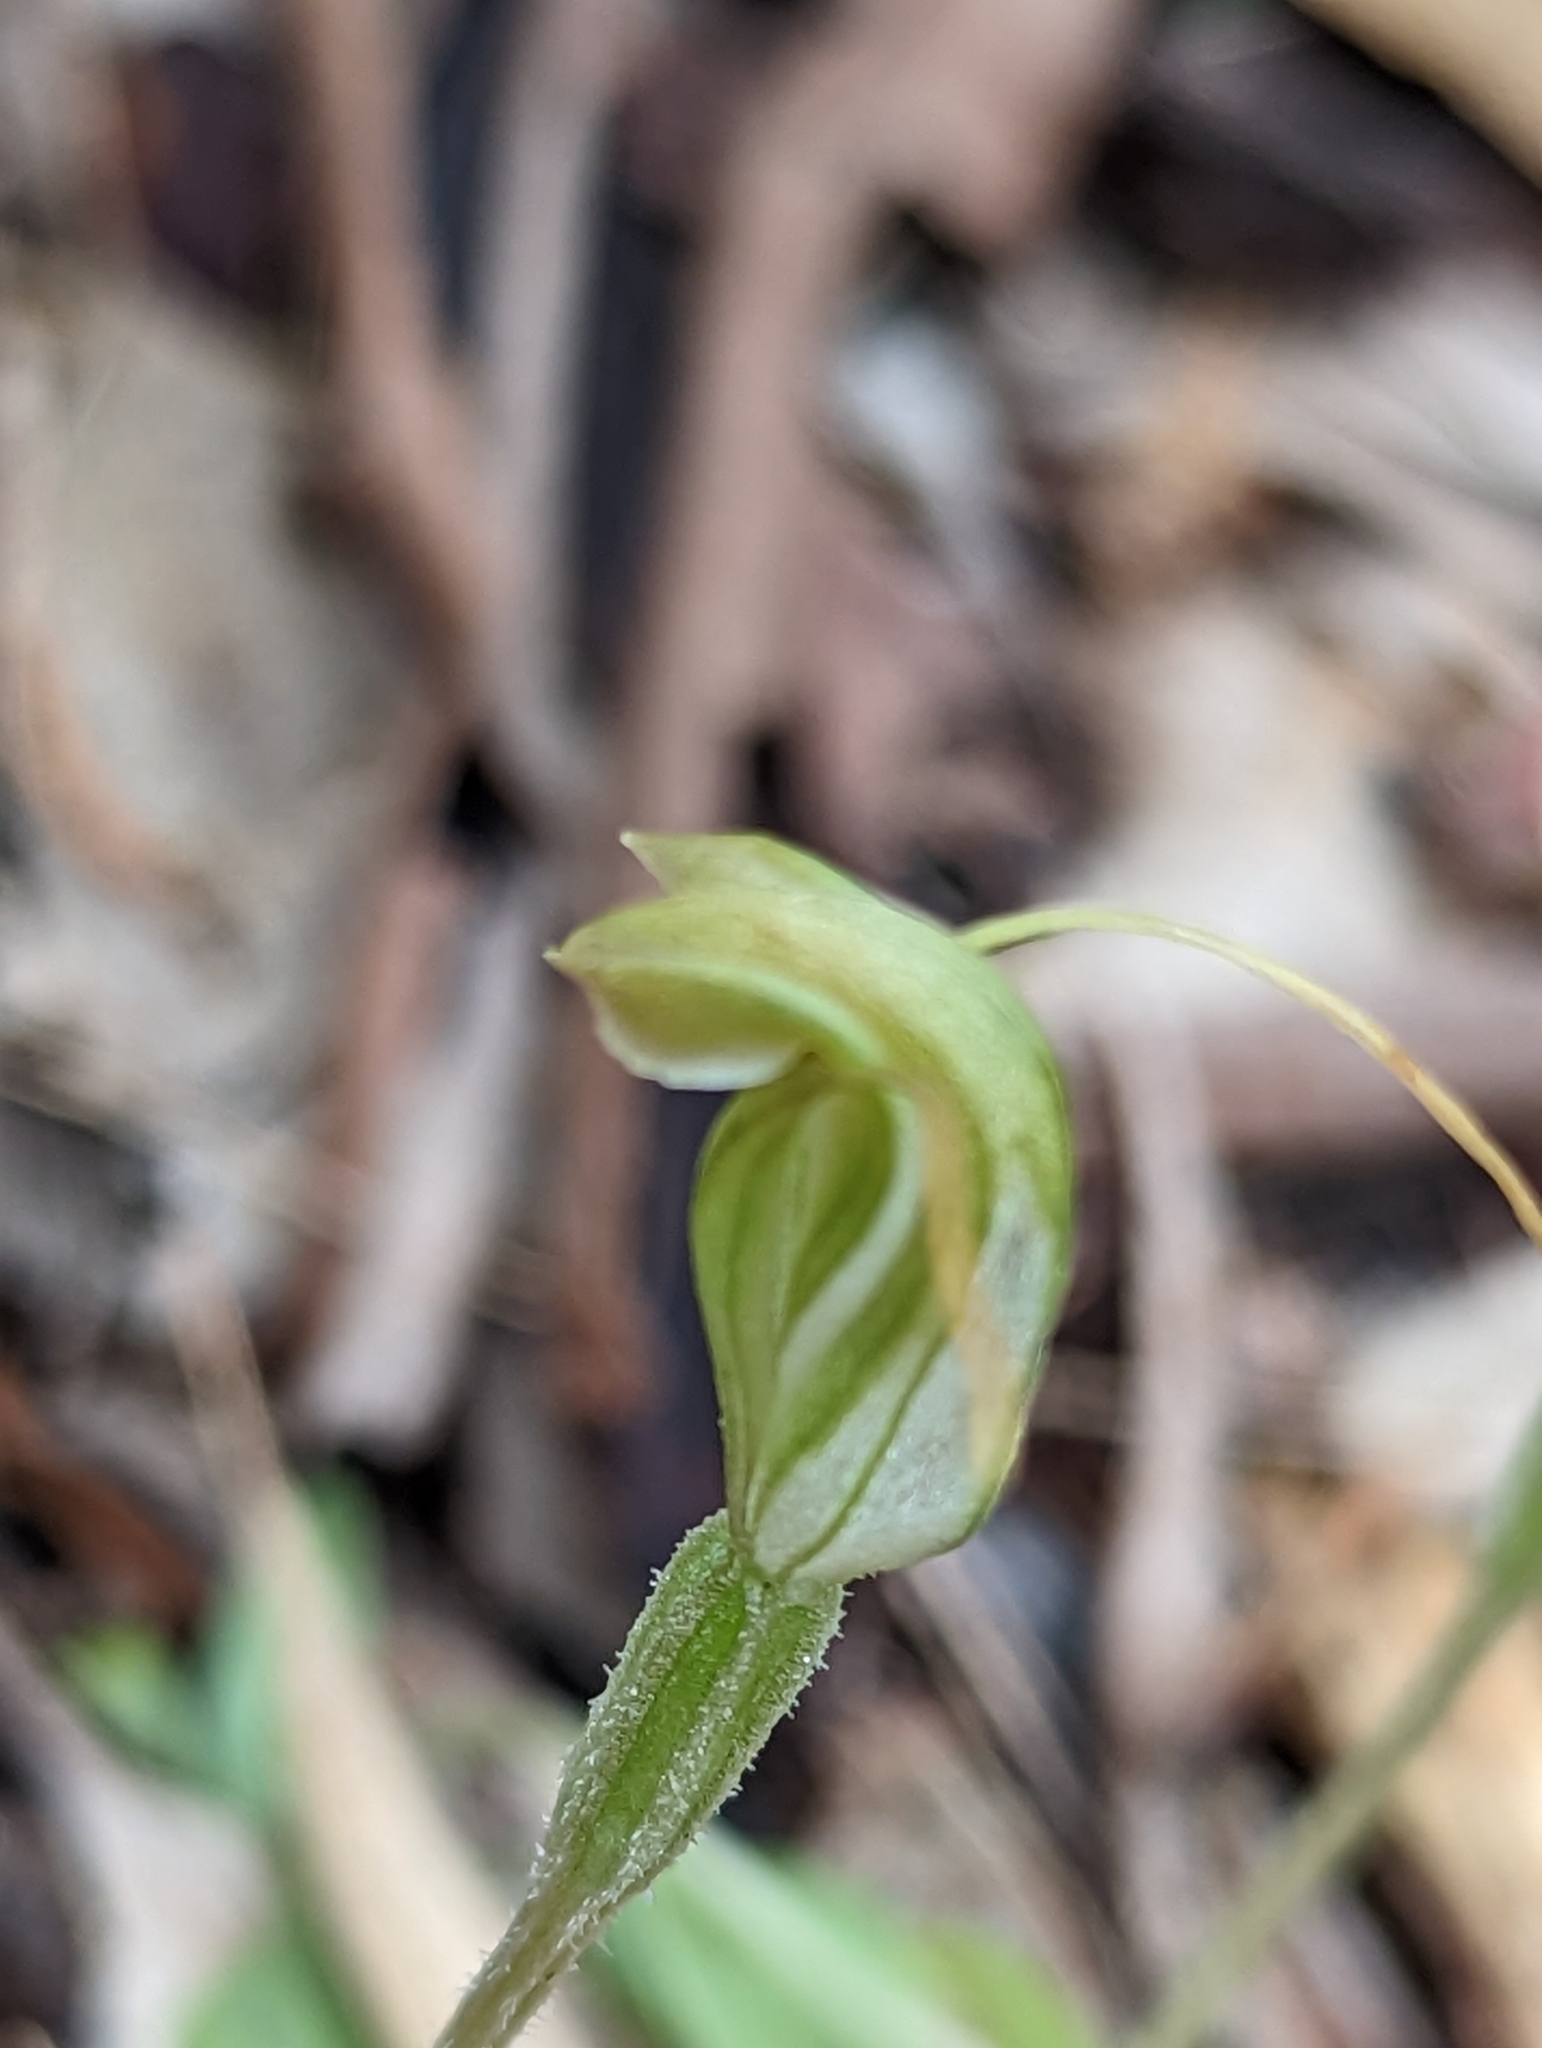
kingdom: Plantae
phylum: Tracheophyta
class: Liliopsida
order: Asparagales
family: Orchidaceae
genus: Pterostylis
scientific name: Pterostylis nana
